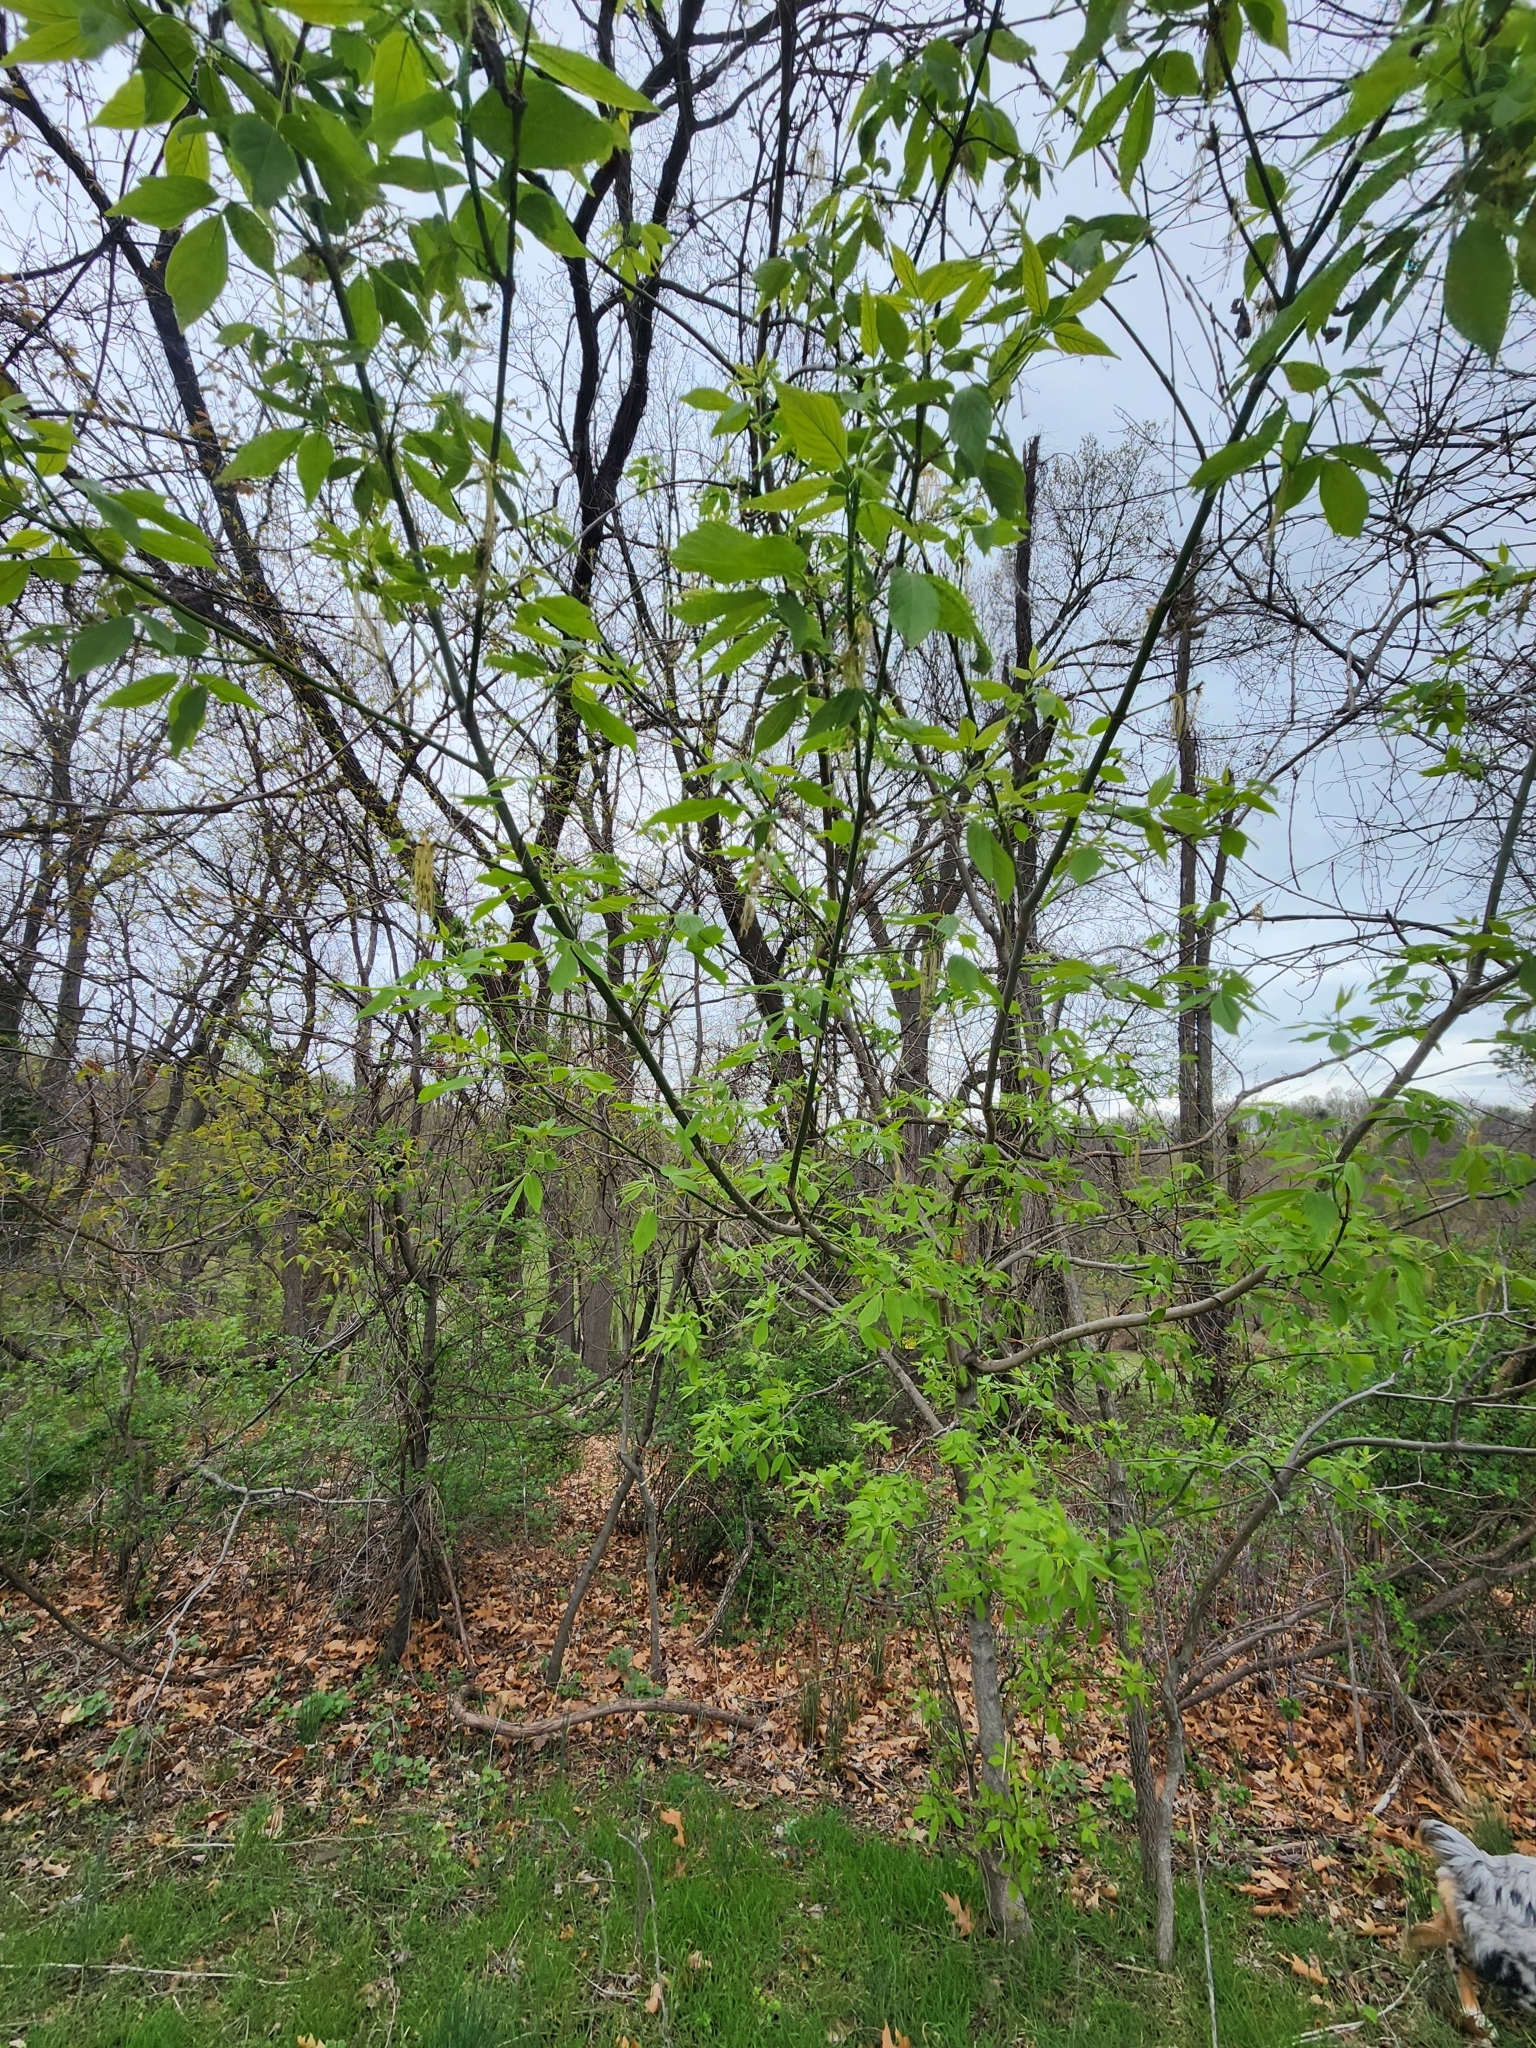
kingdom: Plantae
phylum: Tracheophyta
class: Magnoliopsida
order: Sapindales
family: Sapindaceae
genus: Acer
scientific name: Acer negundo
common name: Ashleaf maple
